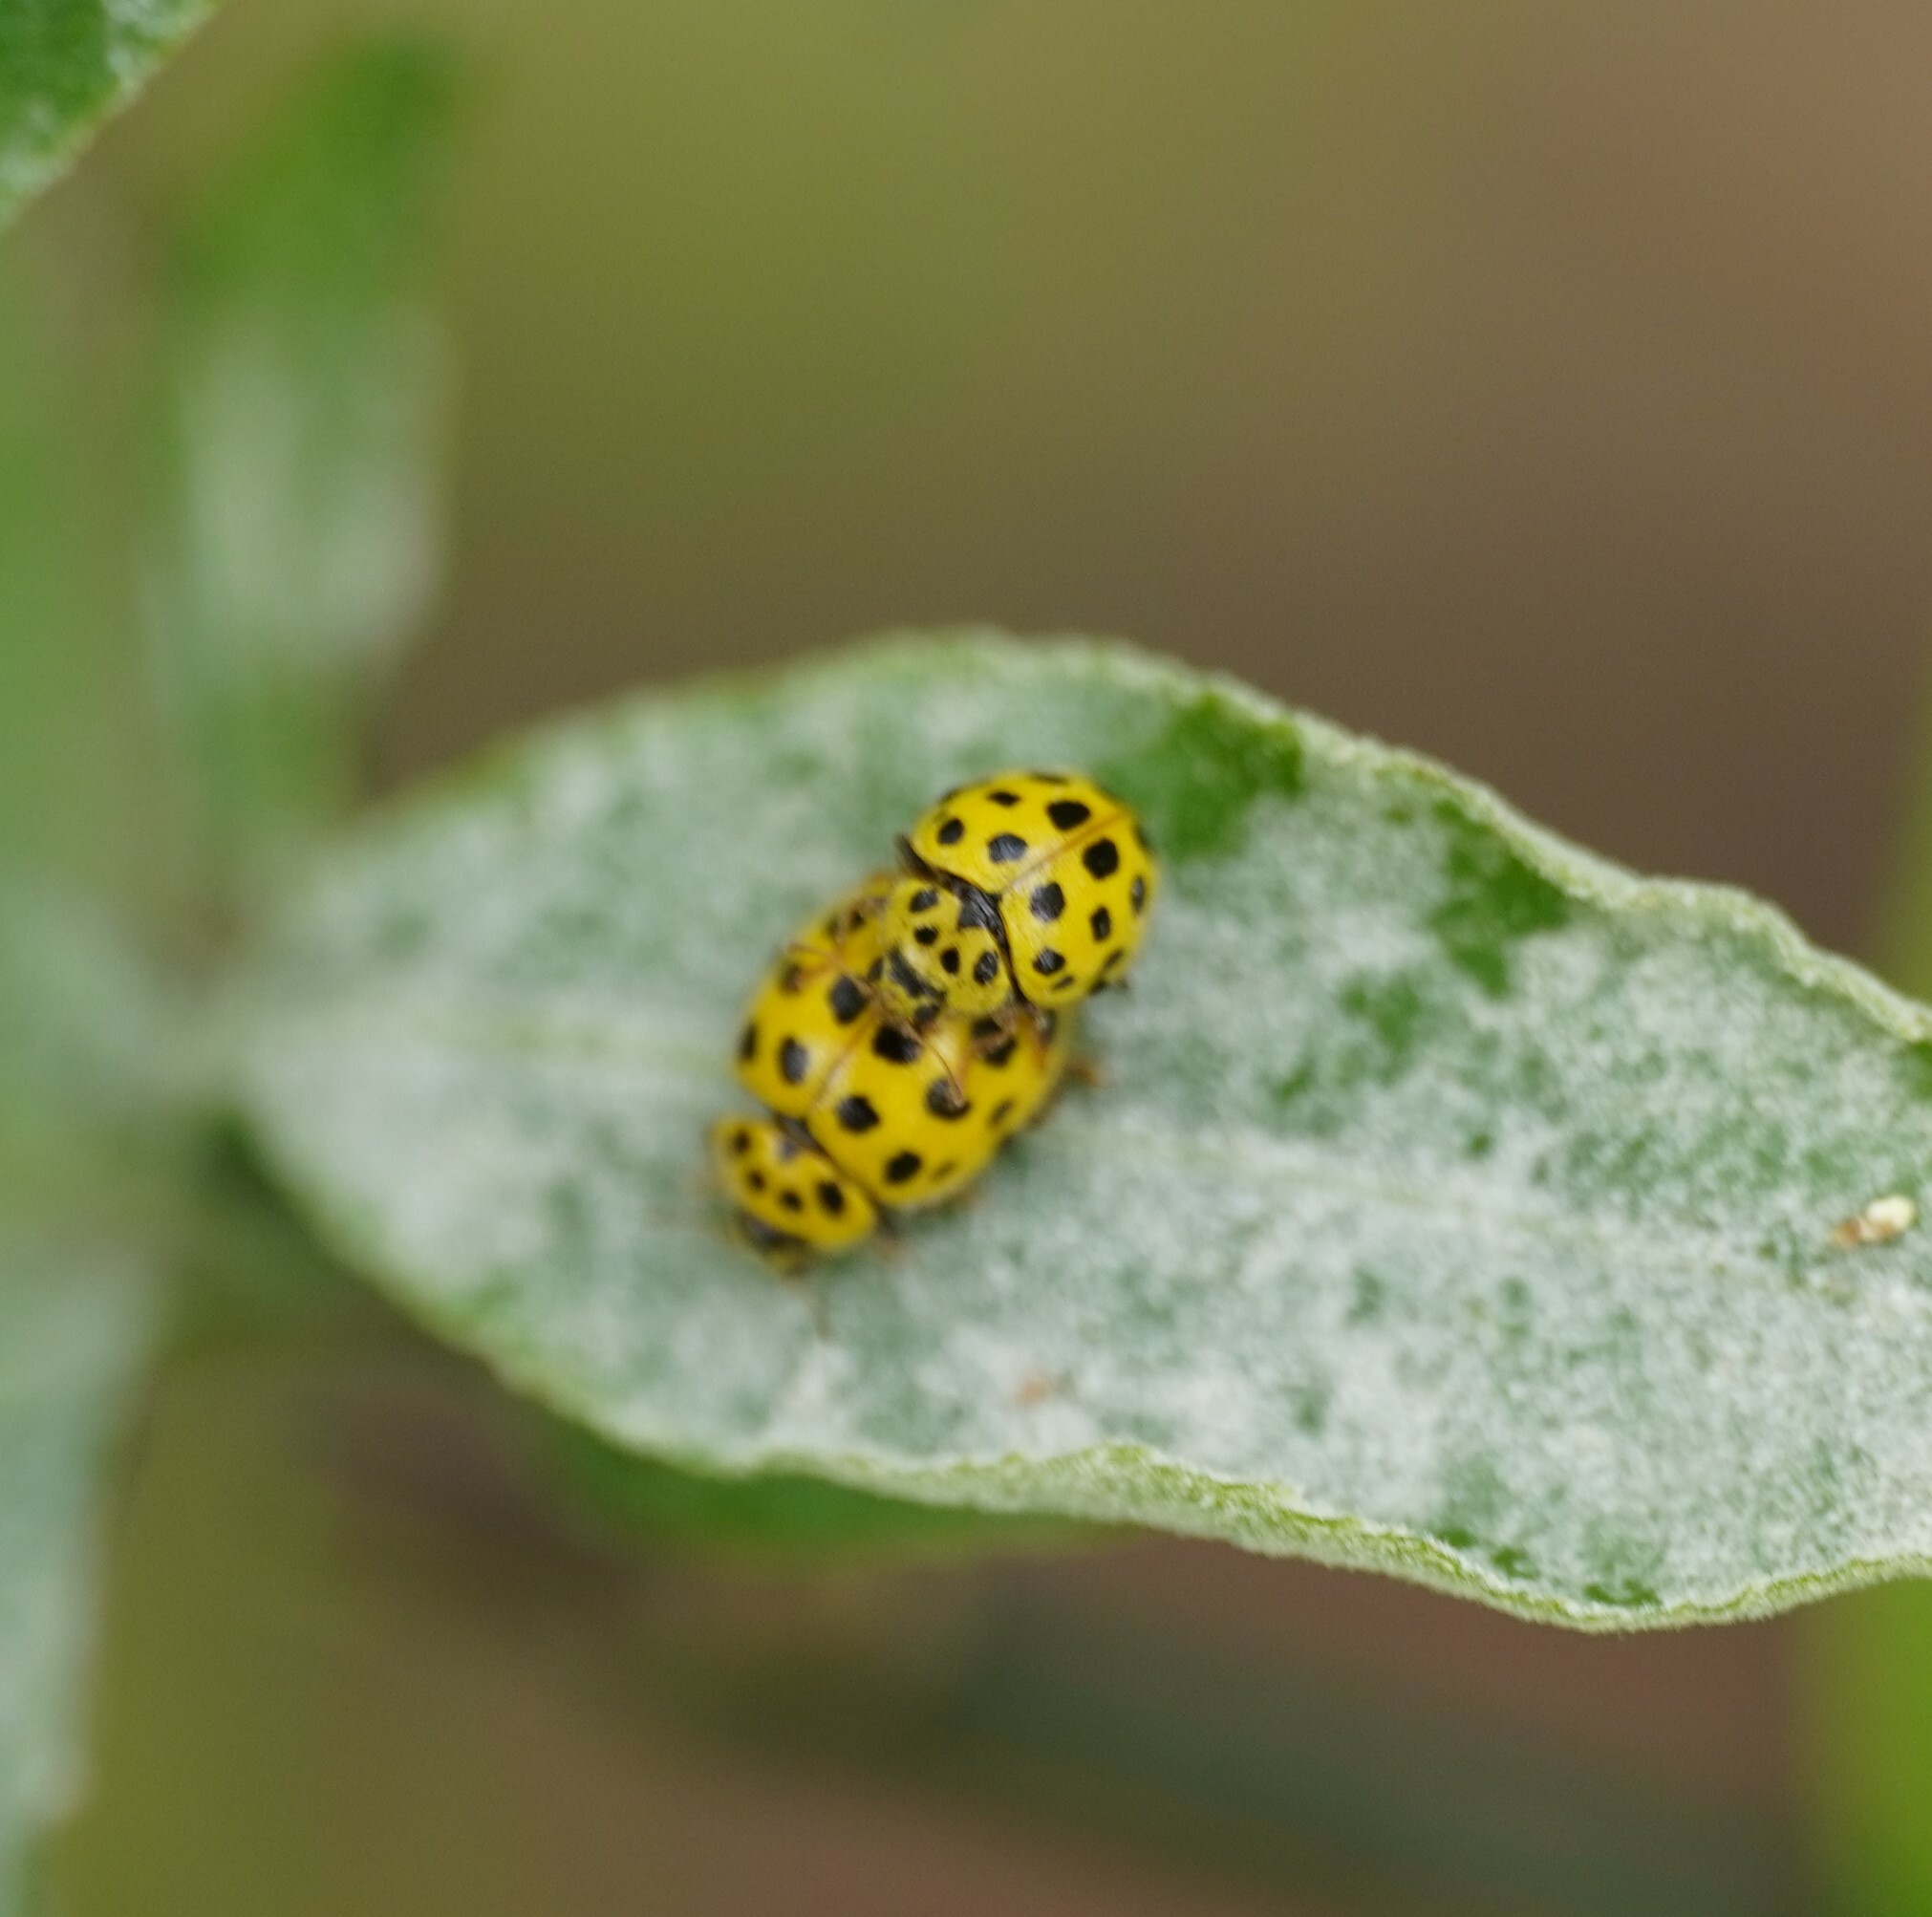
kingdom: Animalia
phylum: Arthropoda
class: Insecta
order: Coleoptera
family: Coccinellidae
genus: Psyllobora
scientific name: Psyllobora vigintiduopunctata
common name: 22-spot ladybird
